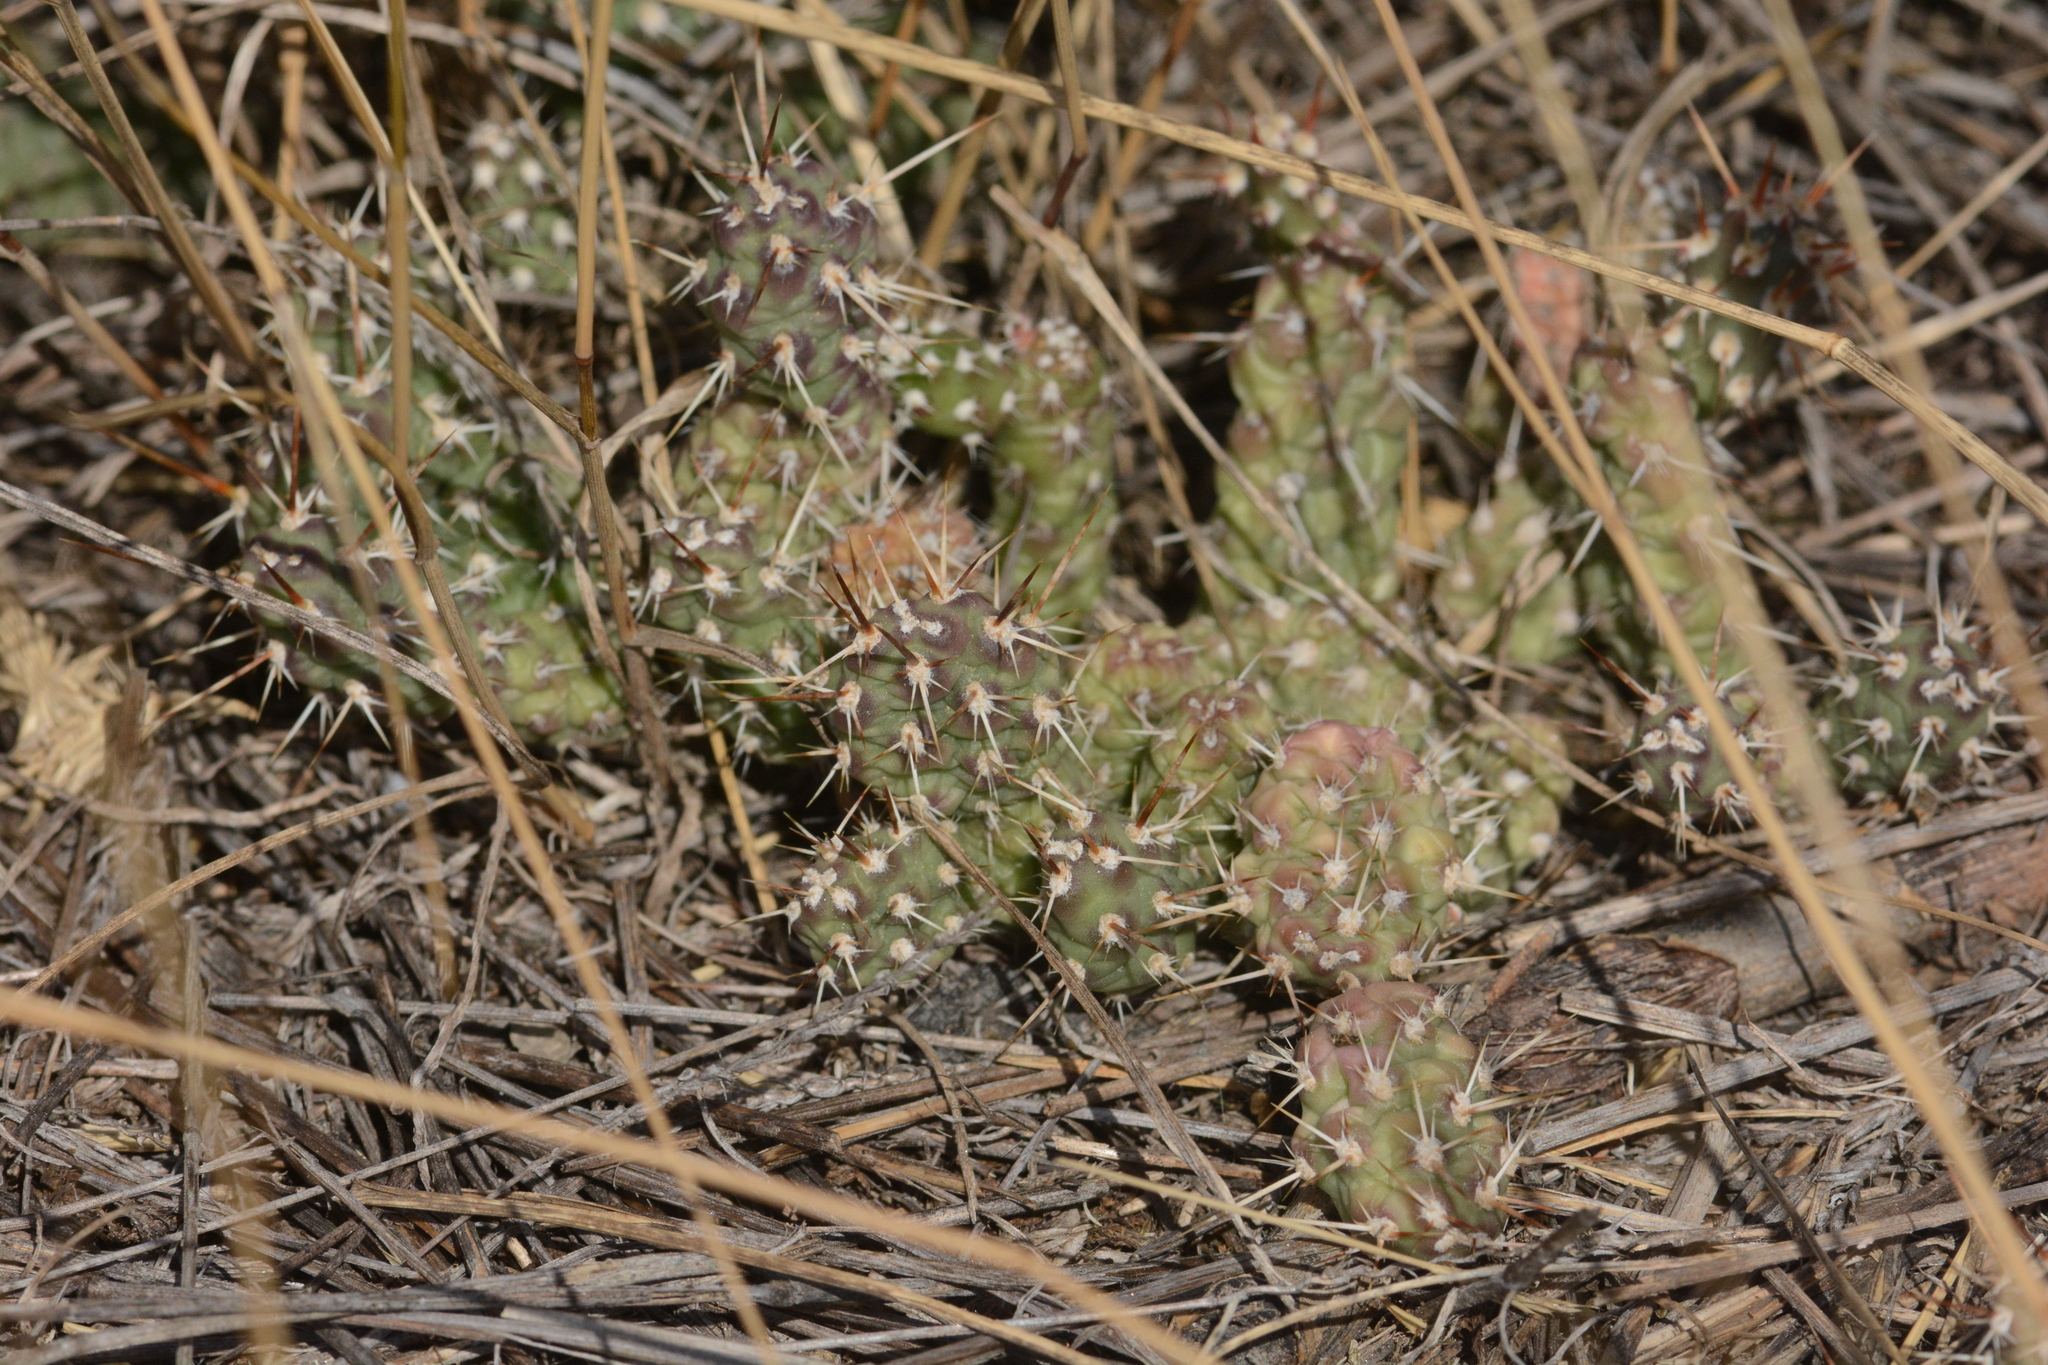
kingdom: Plantae
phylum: Tracheophyta
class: Magnoliopsida
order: Caryophyllales
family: Cactaceae
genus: Opuntia
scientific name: Opuntia fragilis
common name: Brittle cactus
